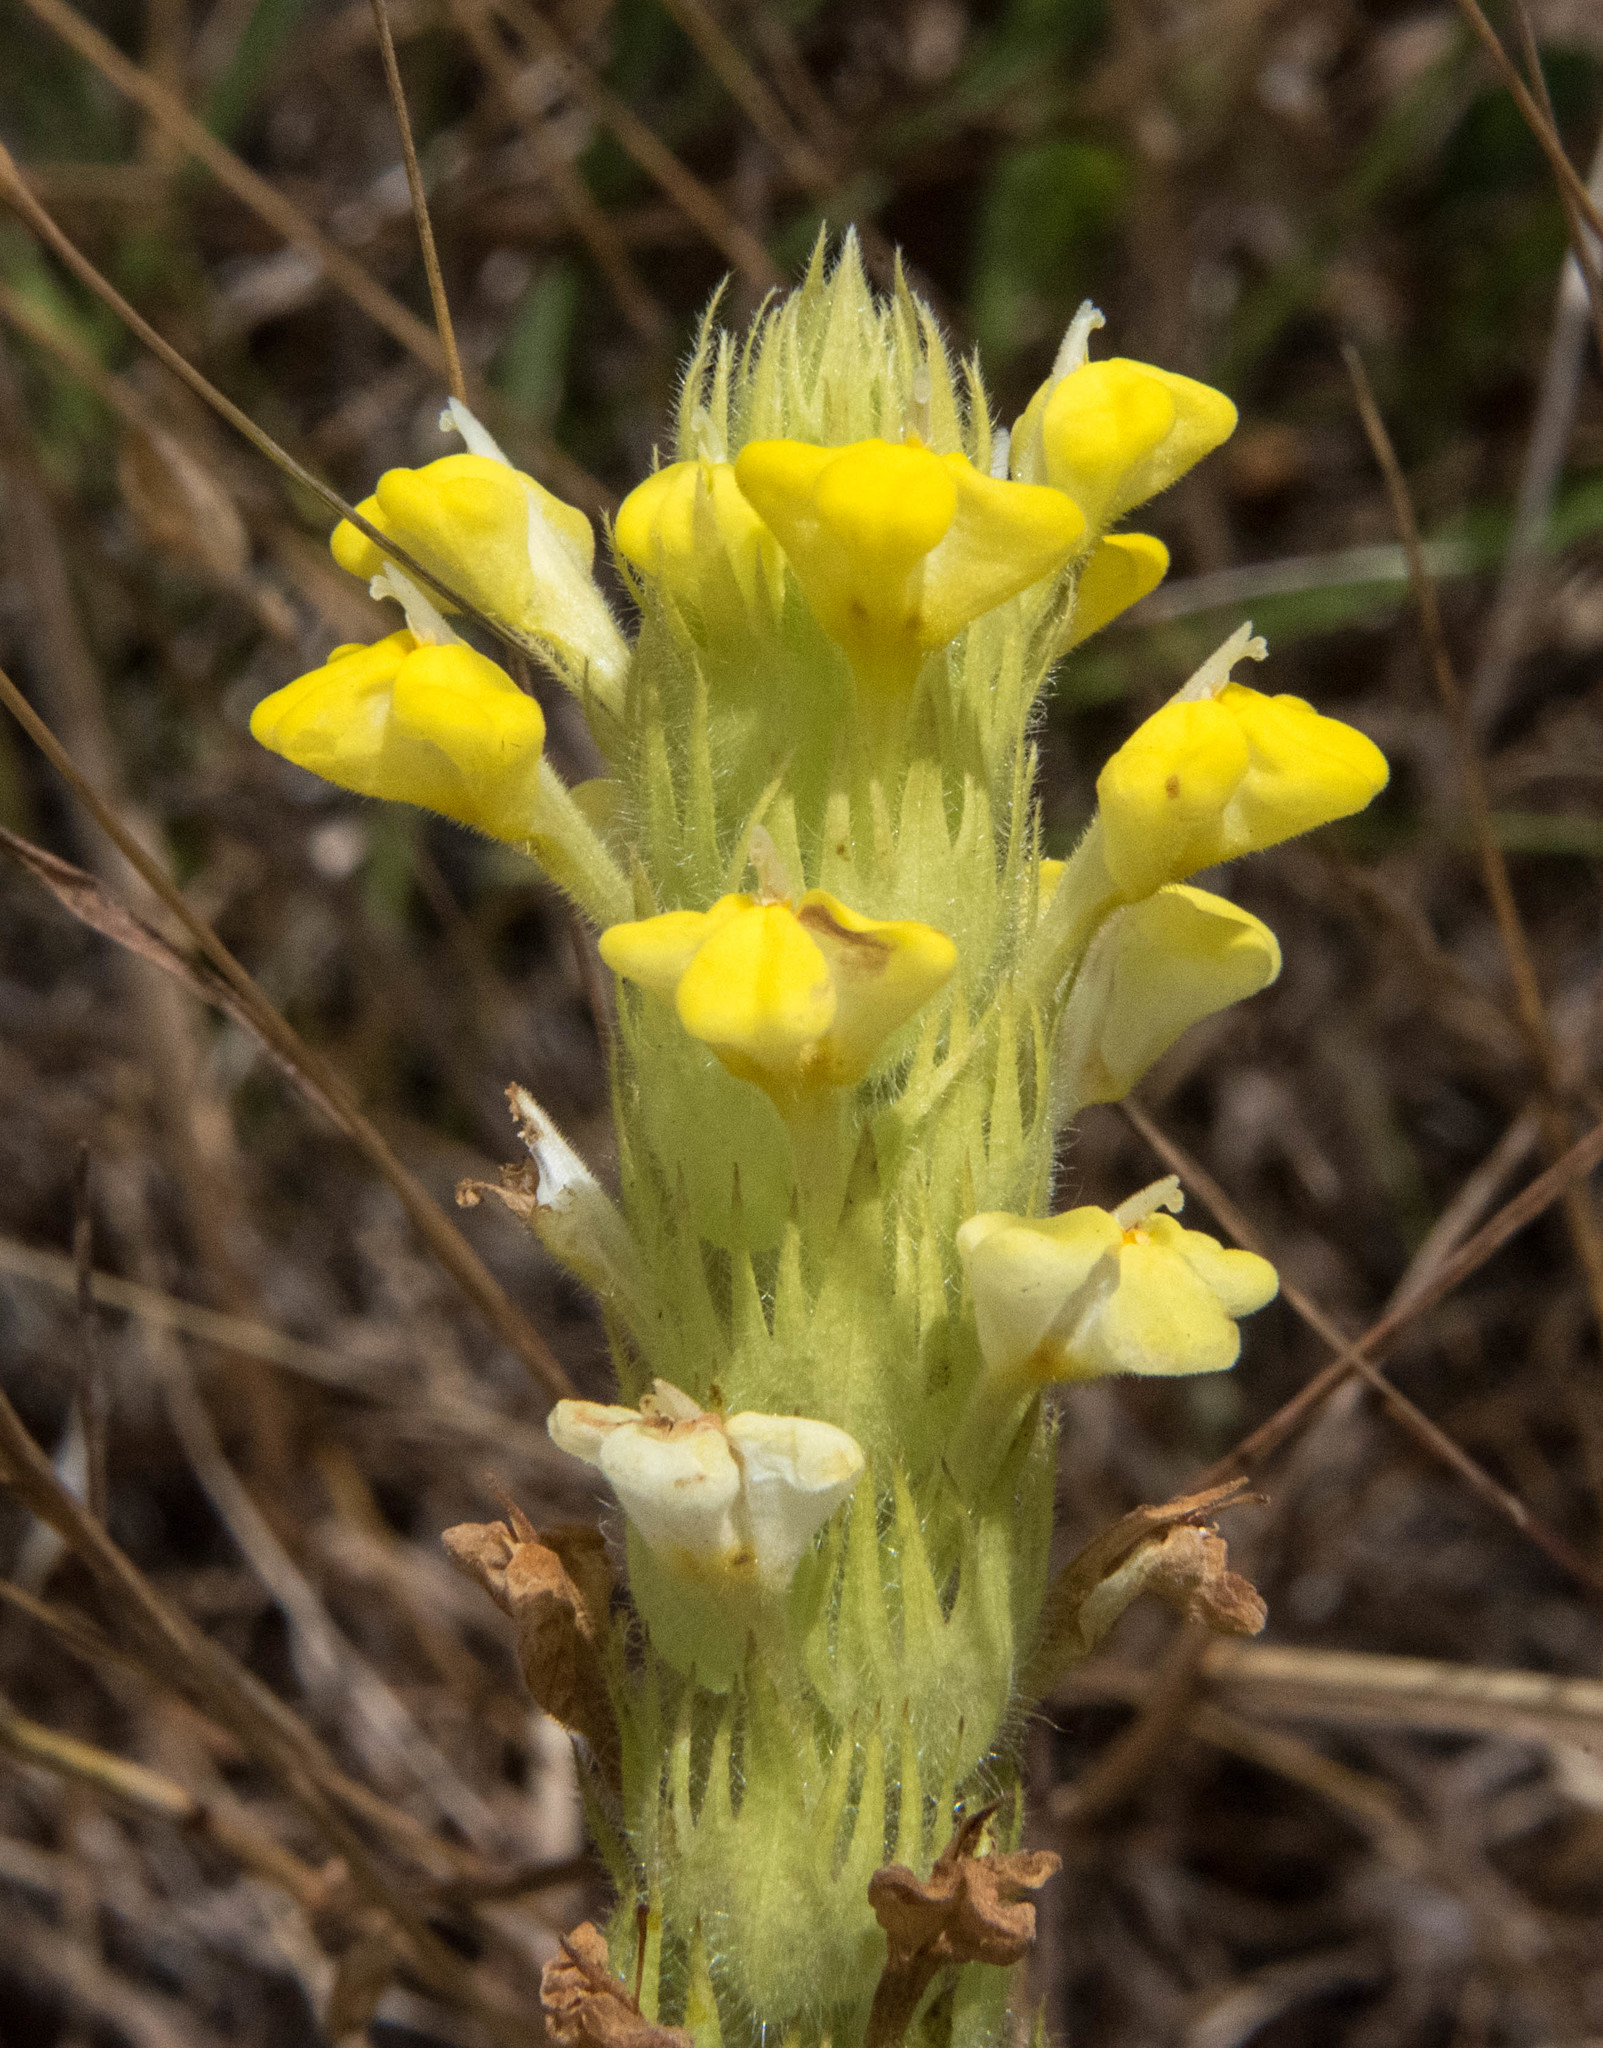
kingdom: Plantae
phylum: Tracheophyta
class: Magnoliopsida
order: Lamiales
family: Orobanchaceae
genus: Castilleja
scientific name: Castilleja rubicundula
